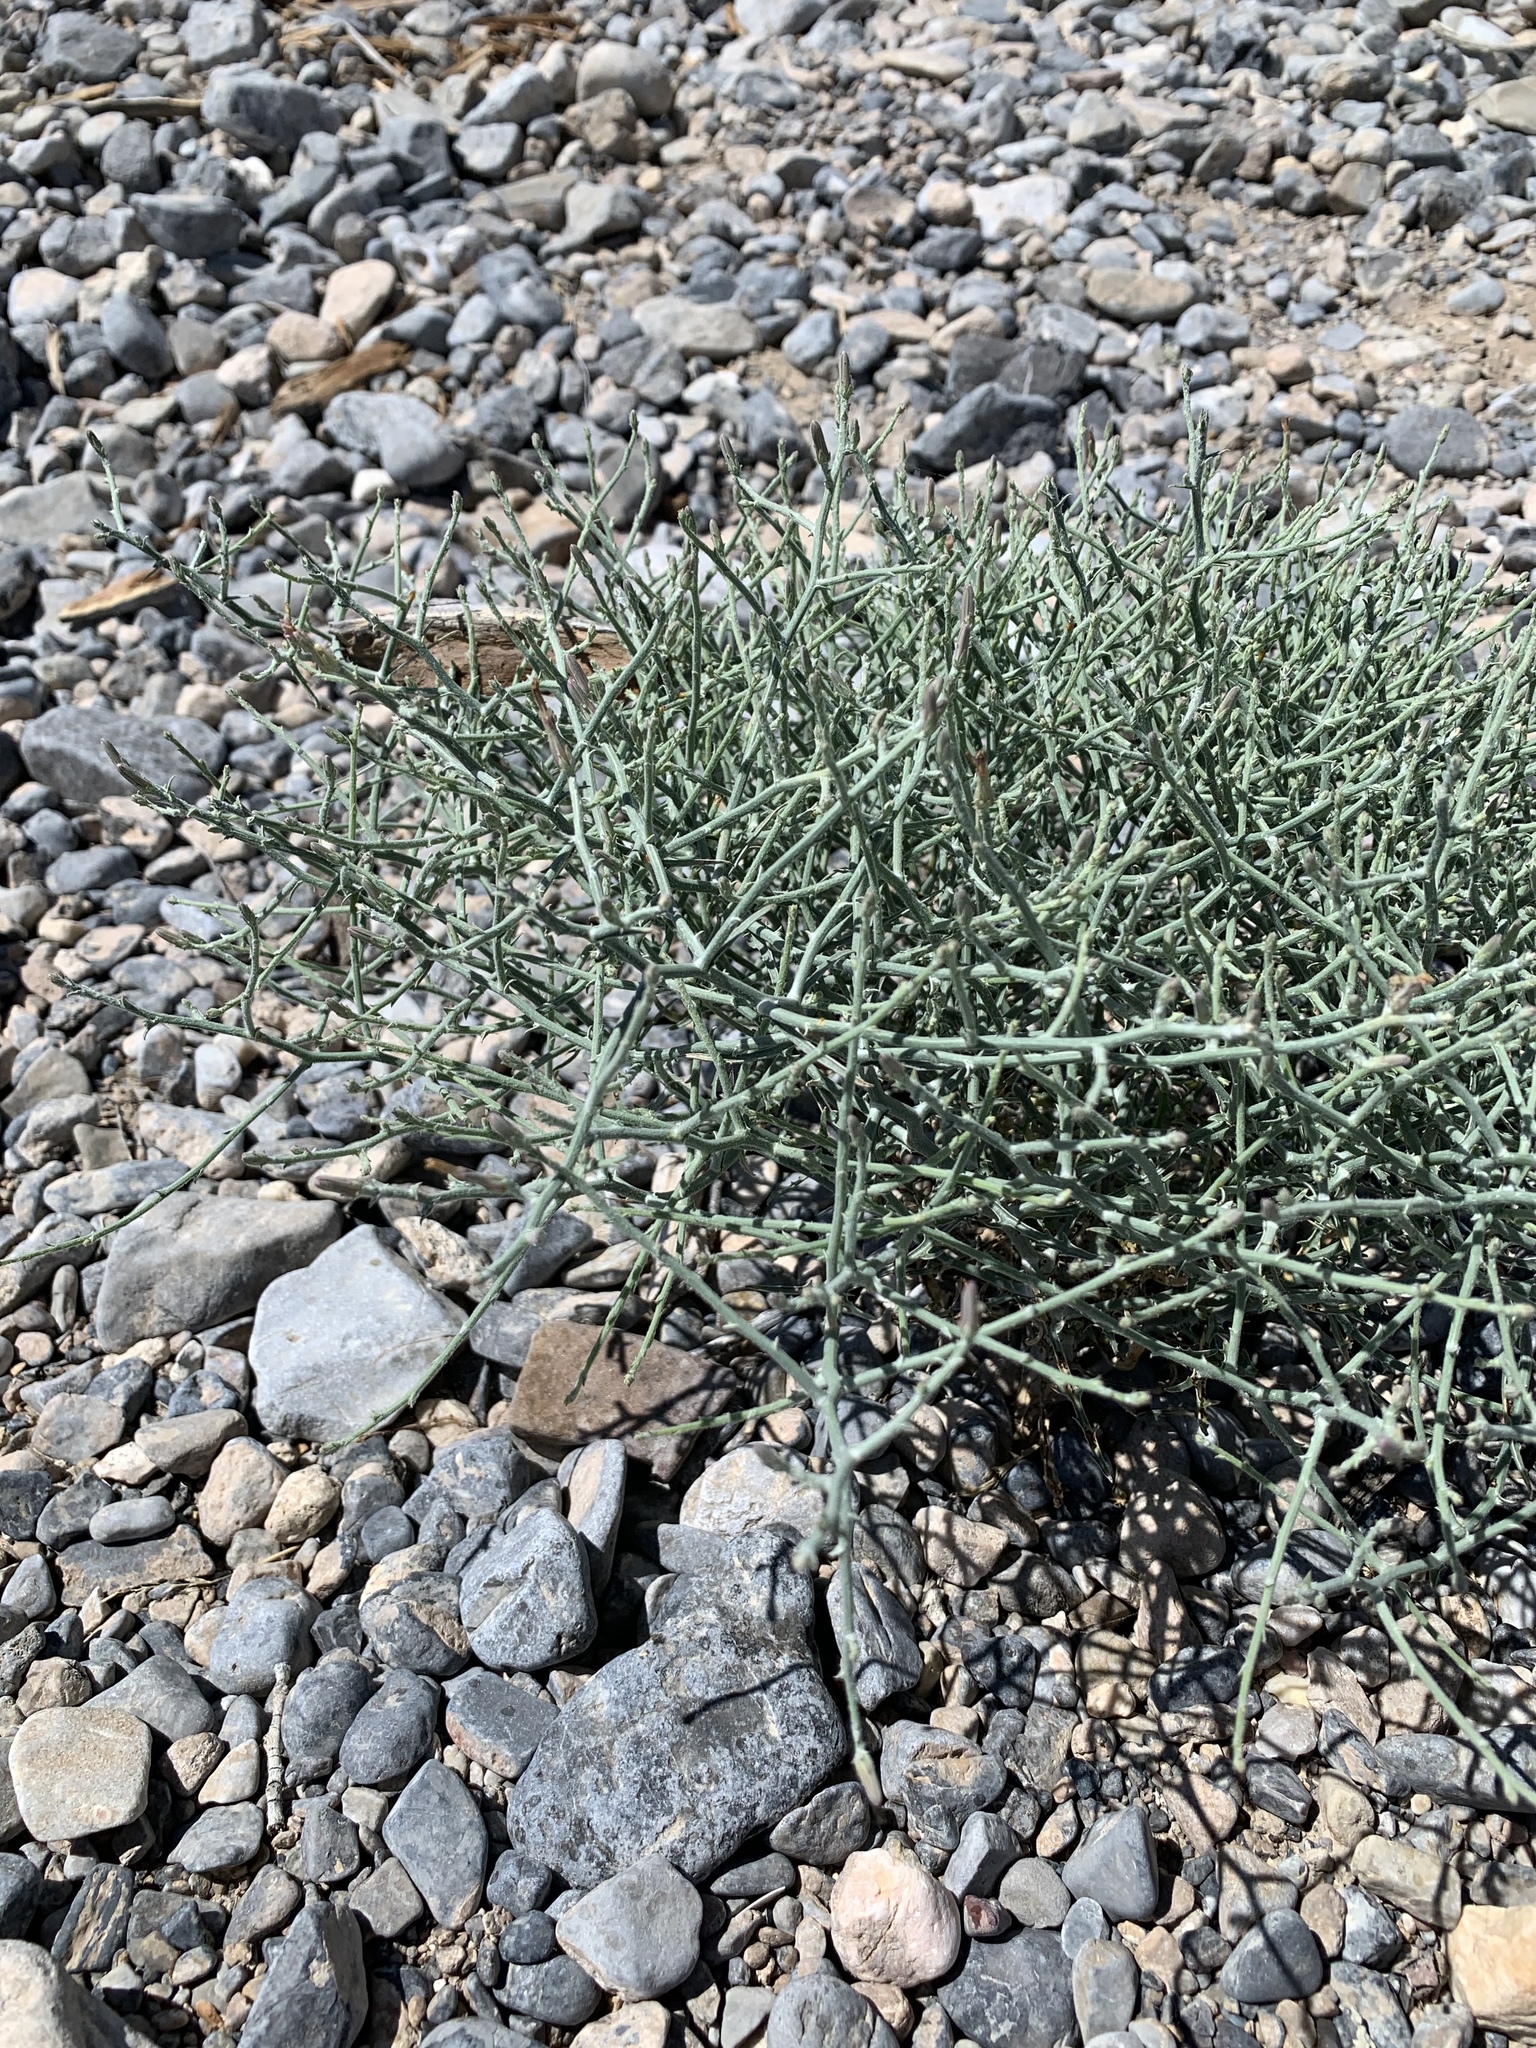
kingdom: Plantae
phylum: Tracheophyta
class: Magnoliopsida
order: Asterales
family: Asteraceae
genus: Stephanomeria
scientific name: Stephanomeria pauciflora
